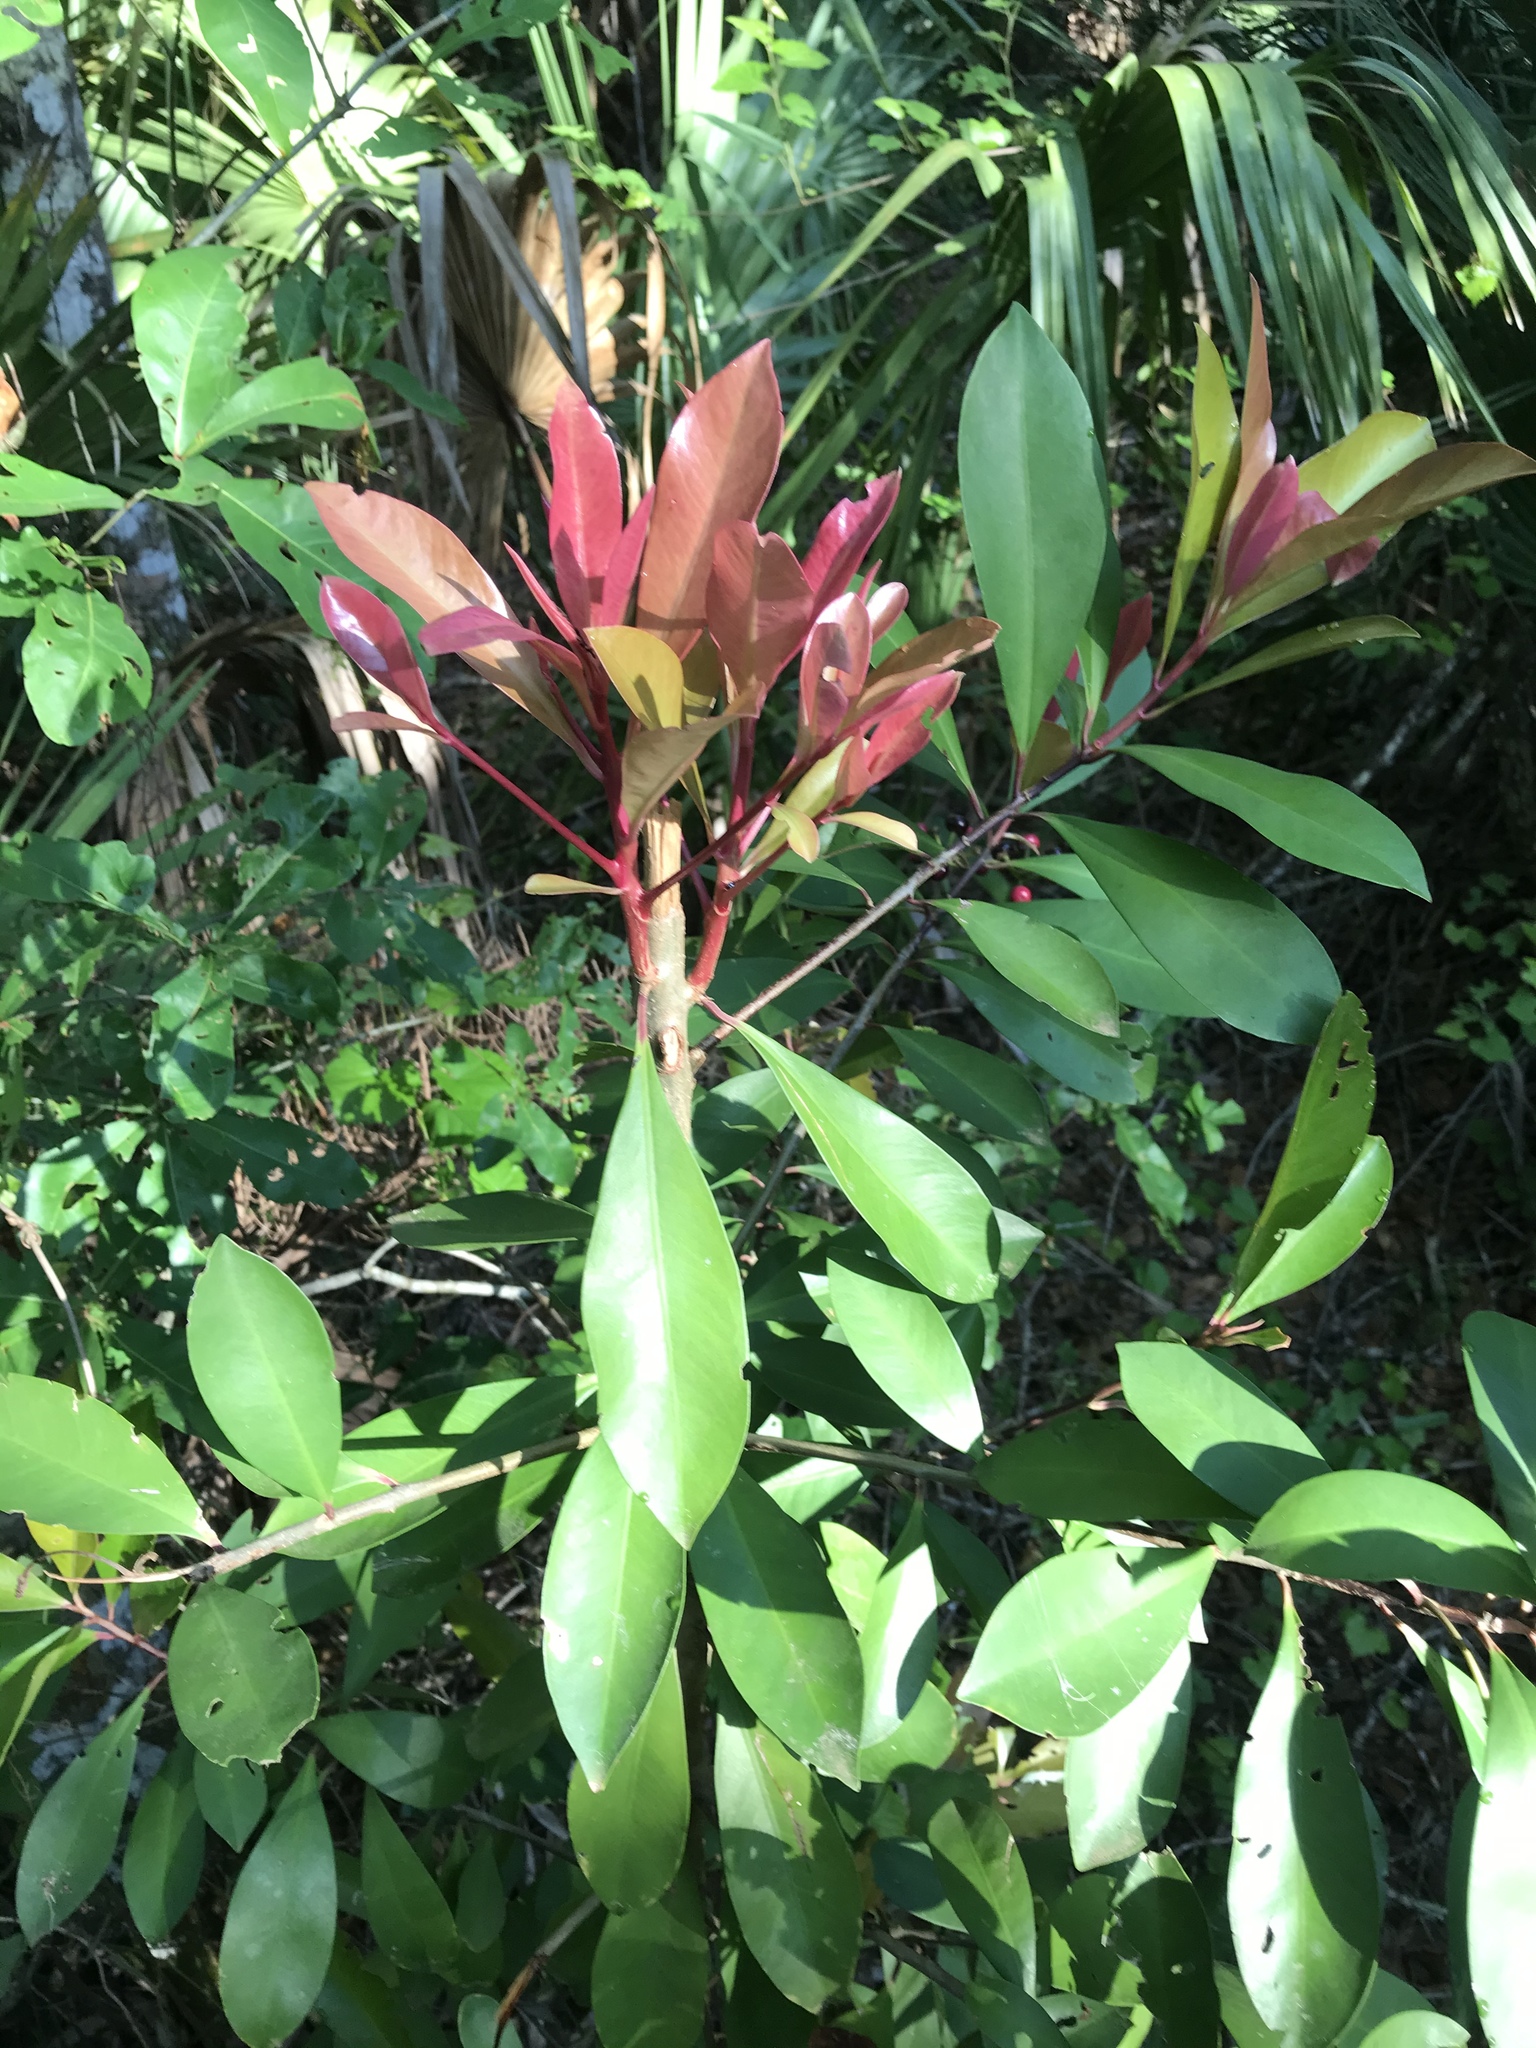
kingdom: Plantae
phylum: Tracheophyta
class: Magnoliopsida
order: Ericales
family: Primulaceae
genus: Ardisia
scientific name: Ardisia elliptica
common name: Shoebutton
